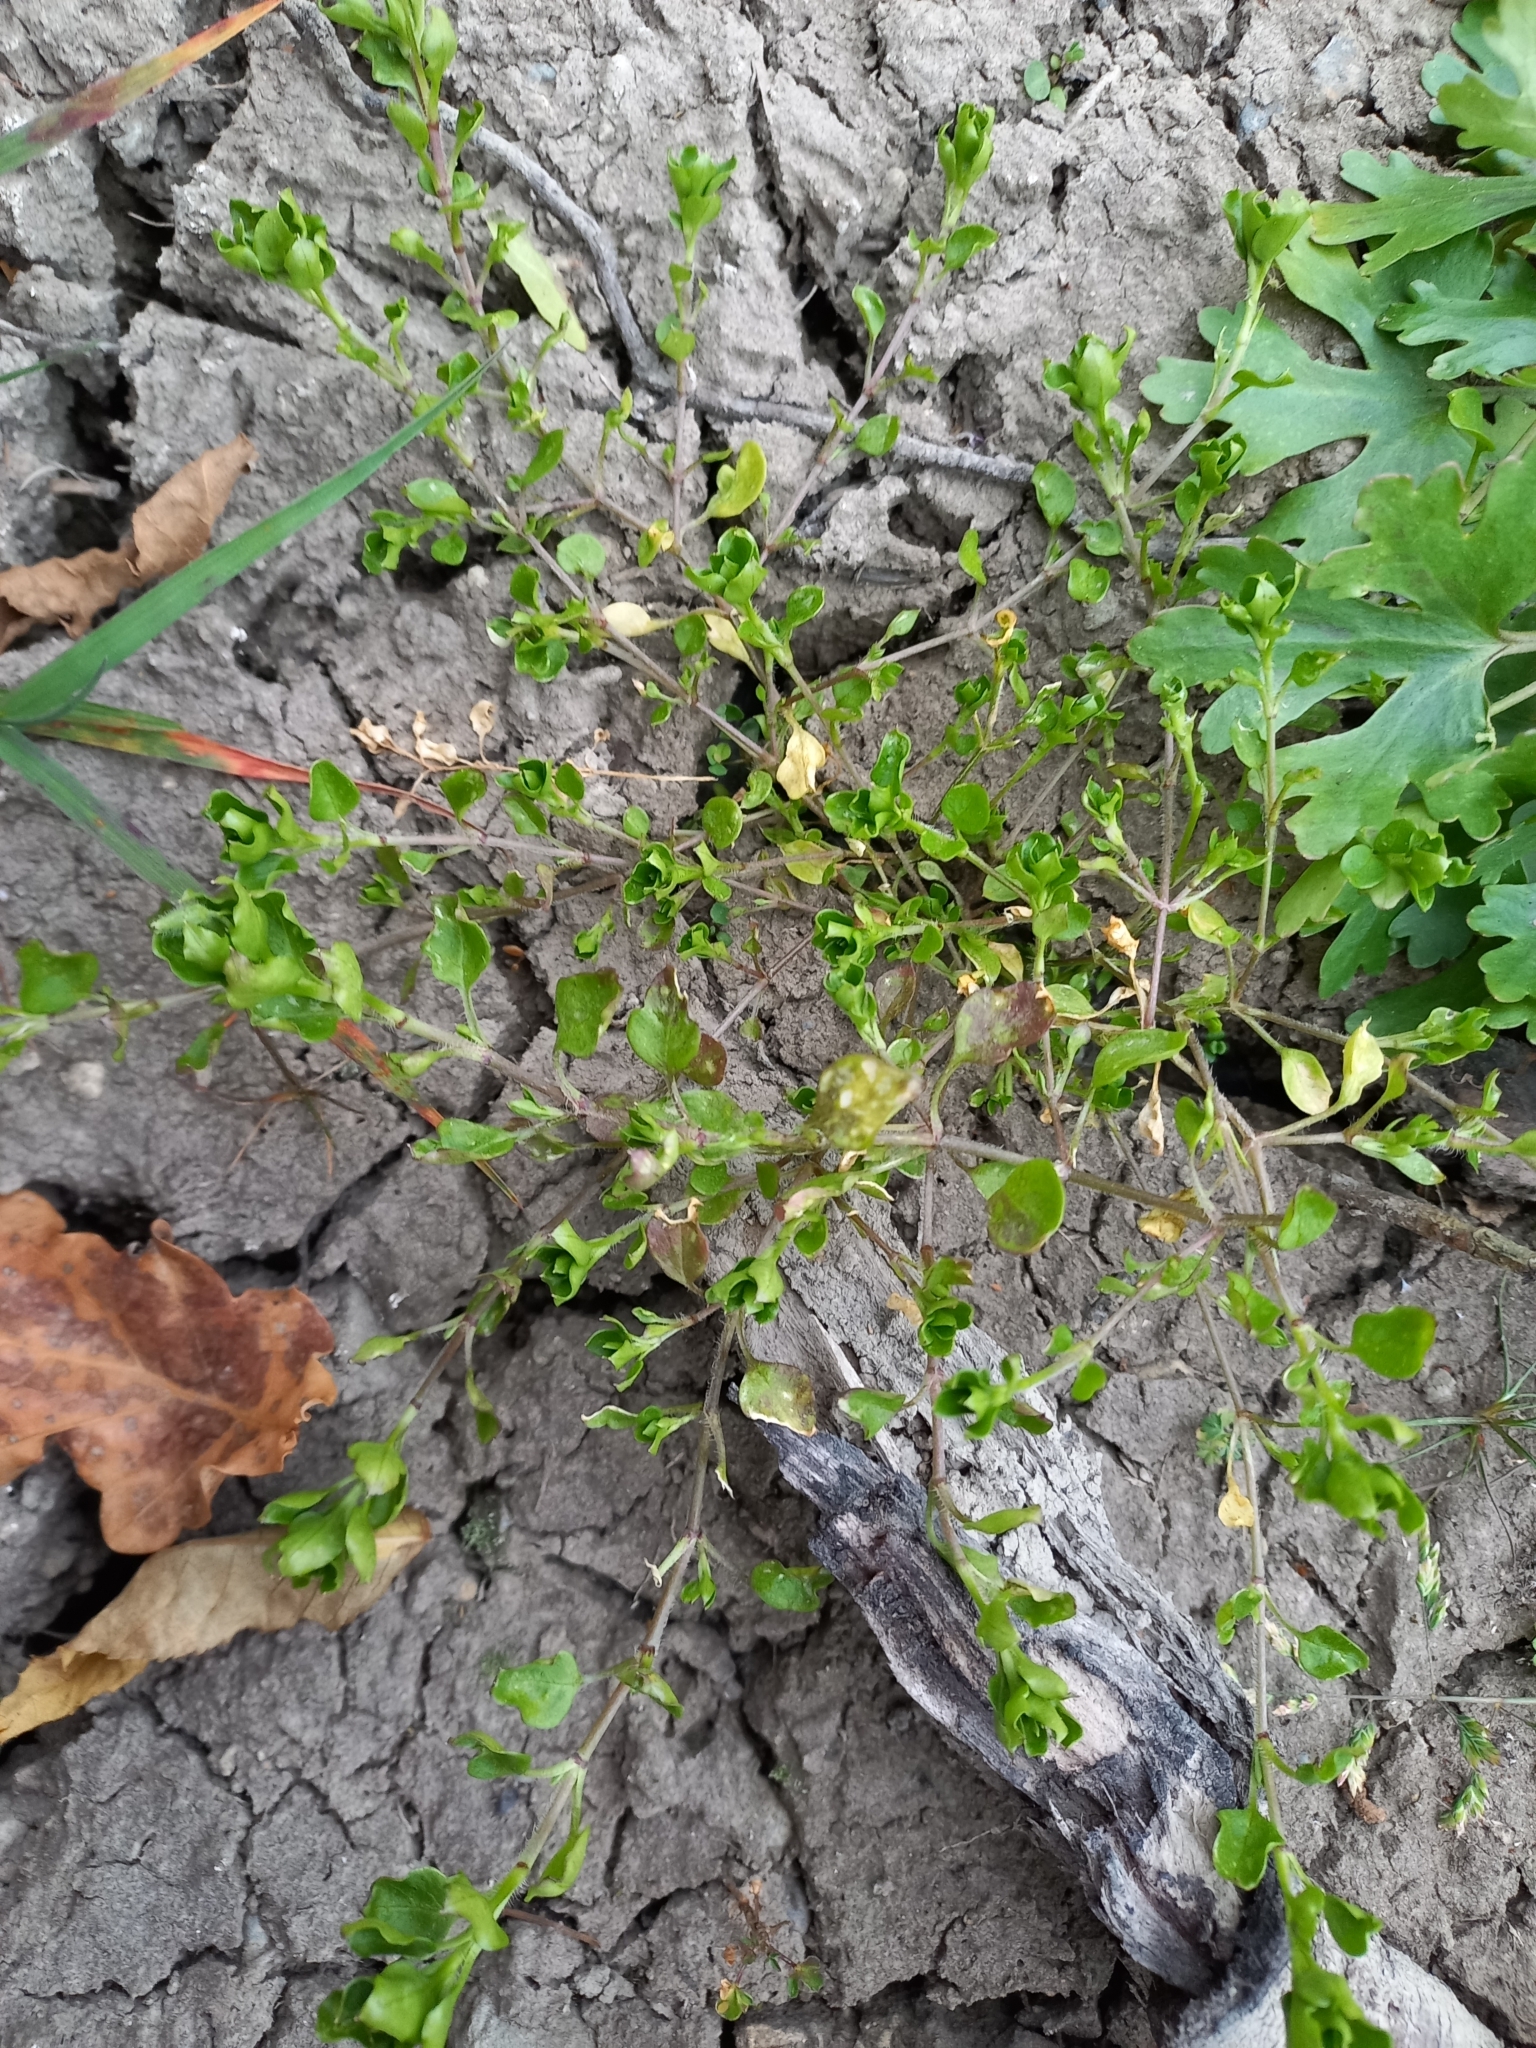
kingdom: Plantae
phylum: Tracheophyta
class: Magnoliopsida
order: Caryophyllales
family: Caryophyllaceae
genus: Stellaria
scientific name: Stellaria media
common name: Common chickweed
